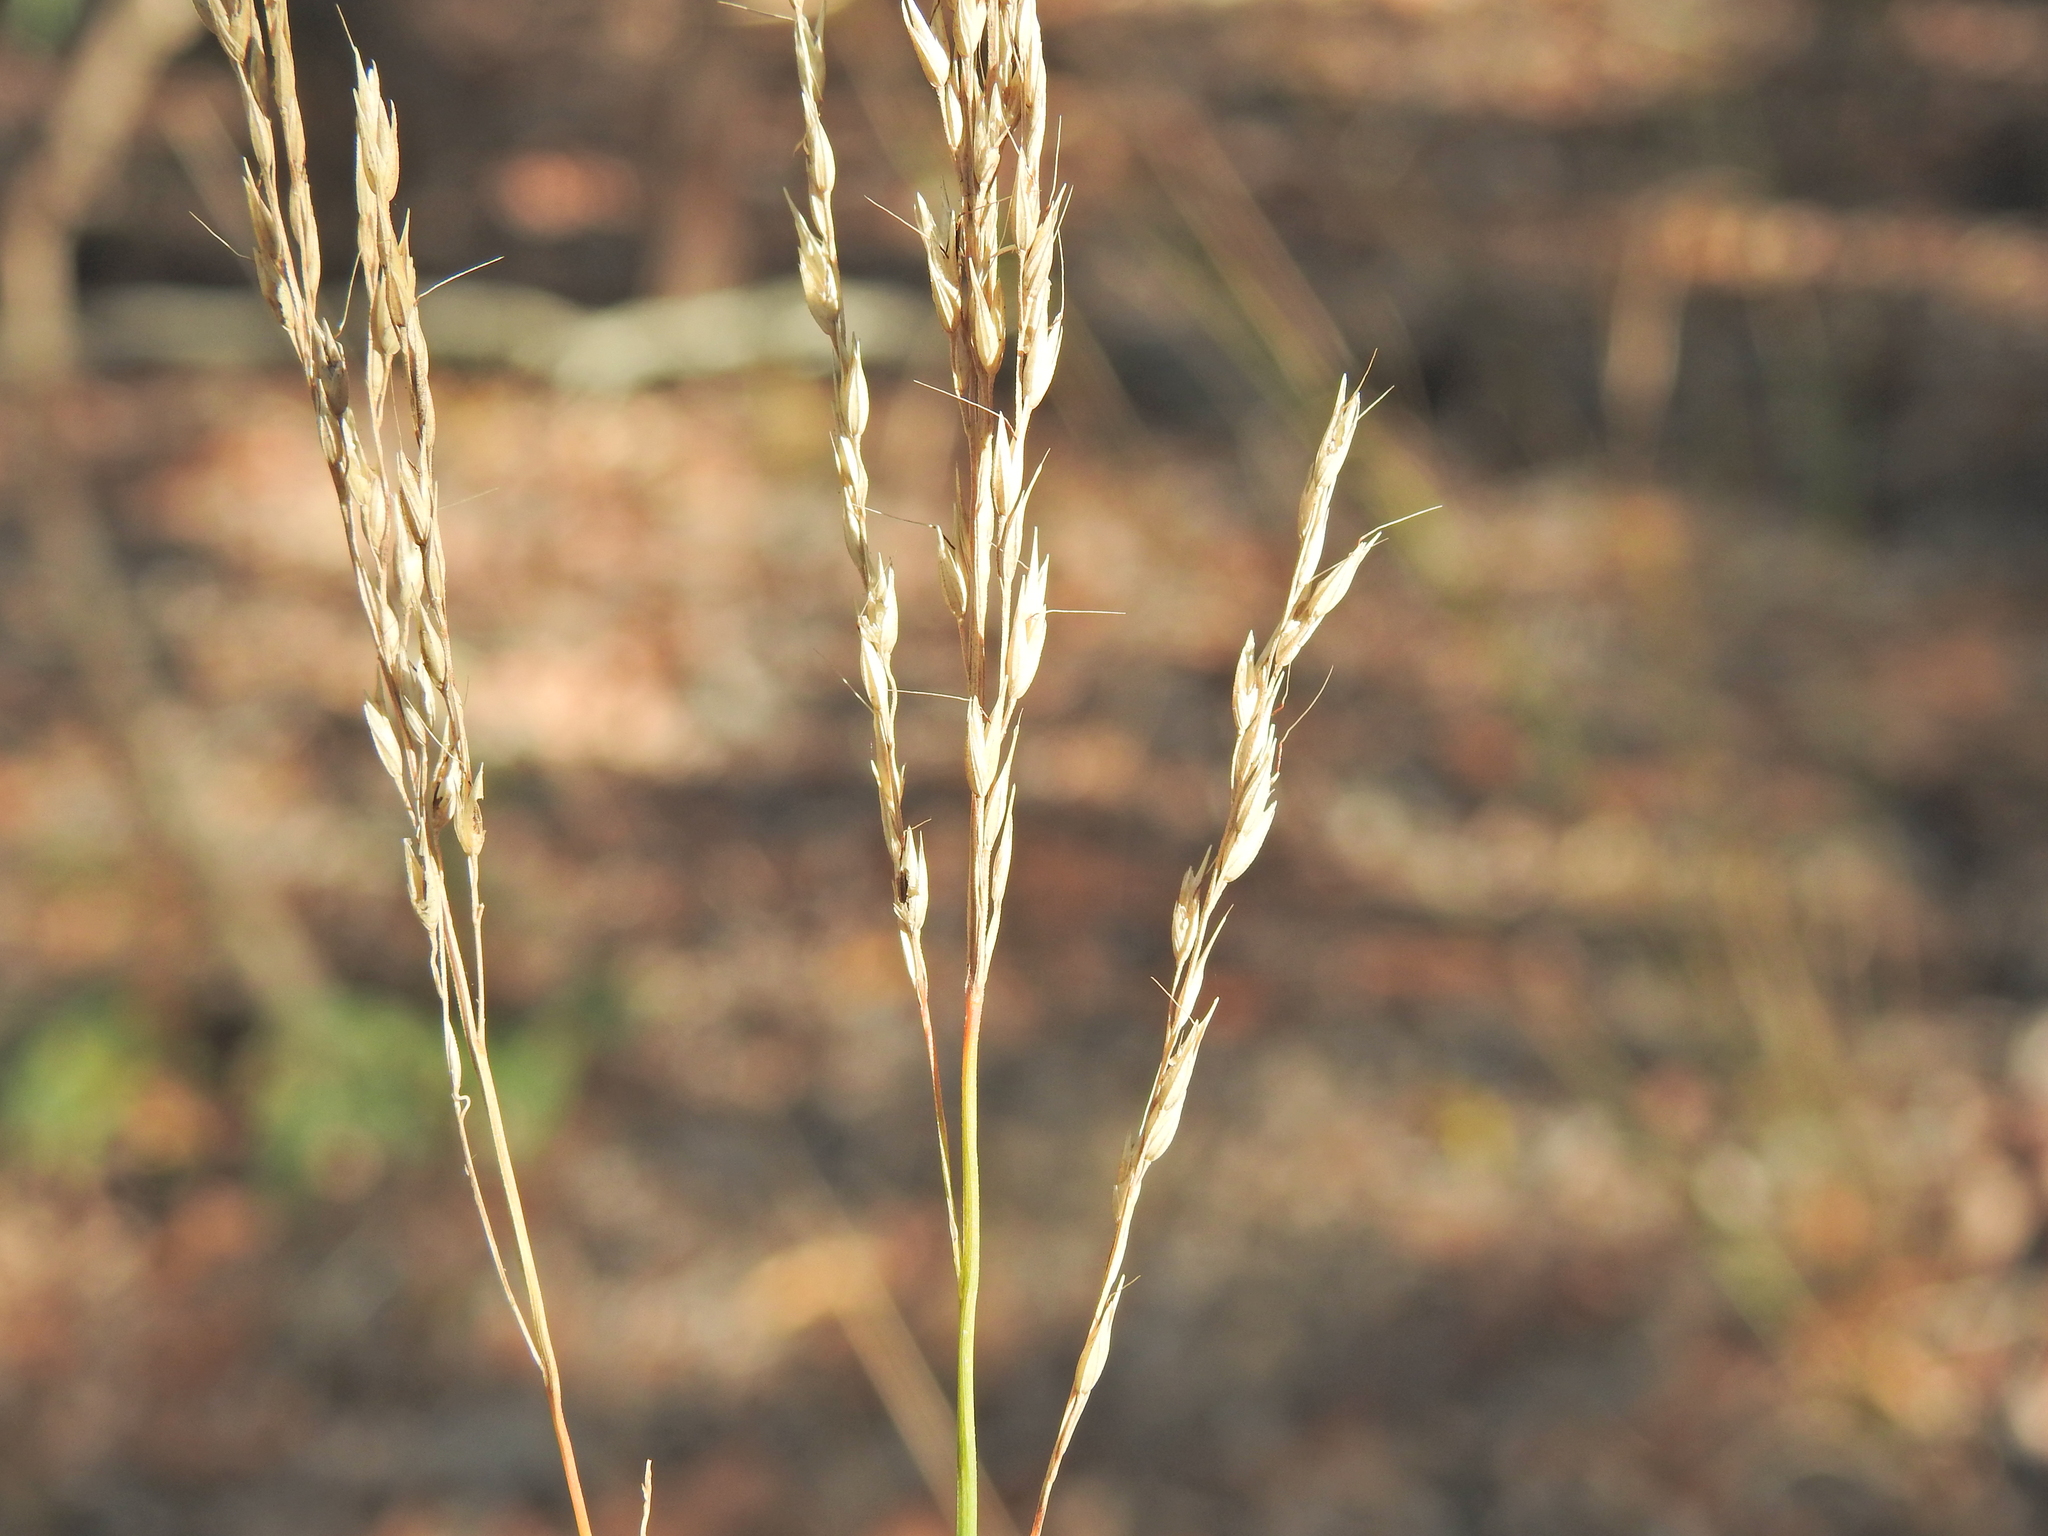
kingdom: Plantae
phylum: Tracheophyta
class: Liliopsida
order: Poales
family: Poaceae
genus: Arundinella
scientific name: Arundinella nepalensis
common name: Reed grass
